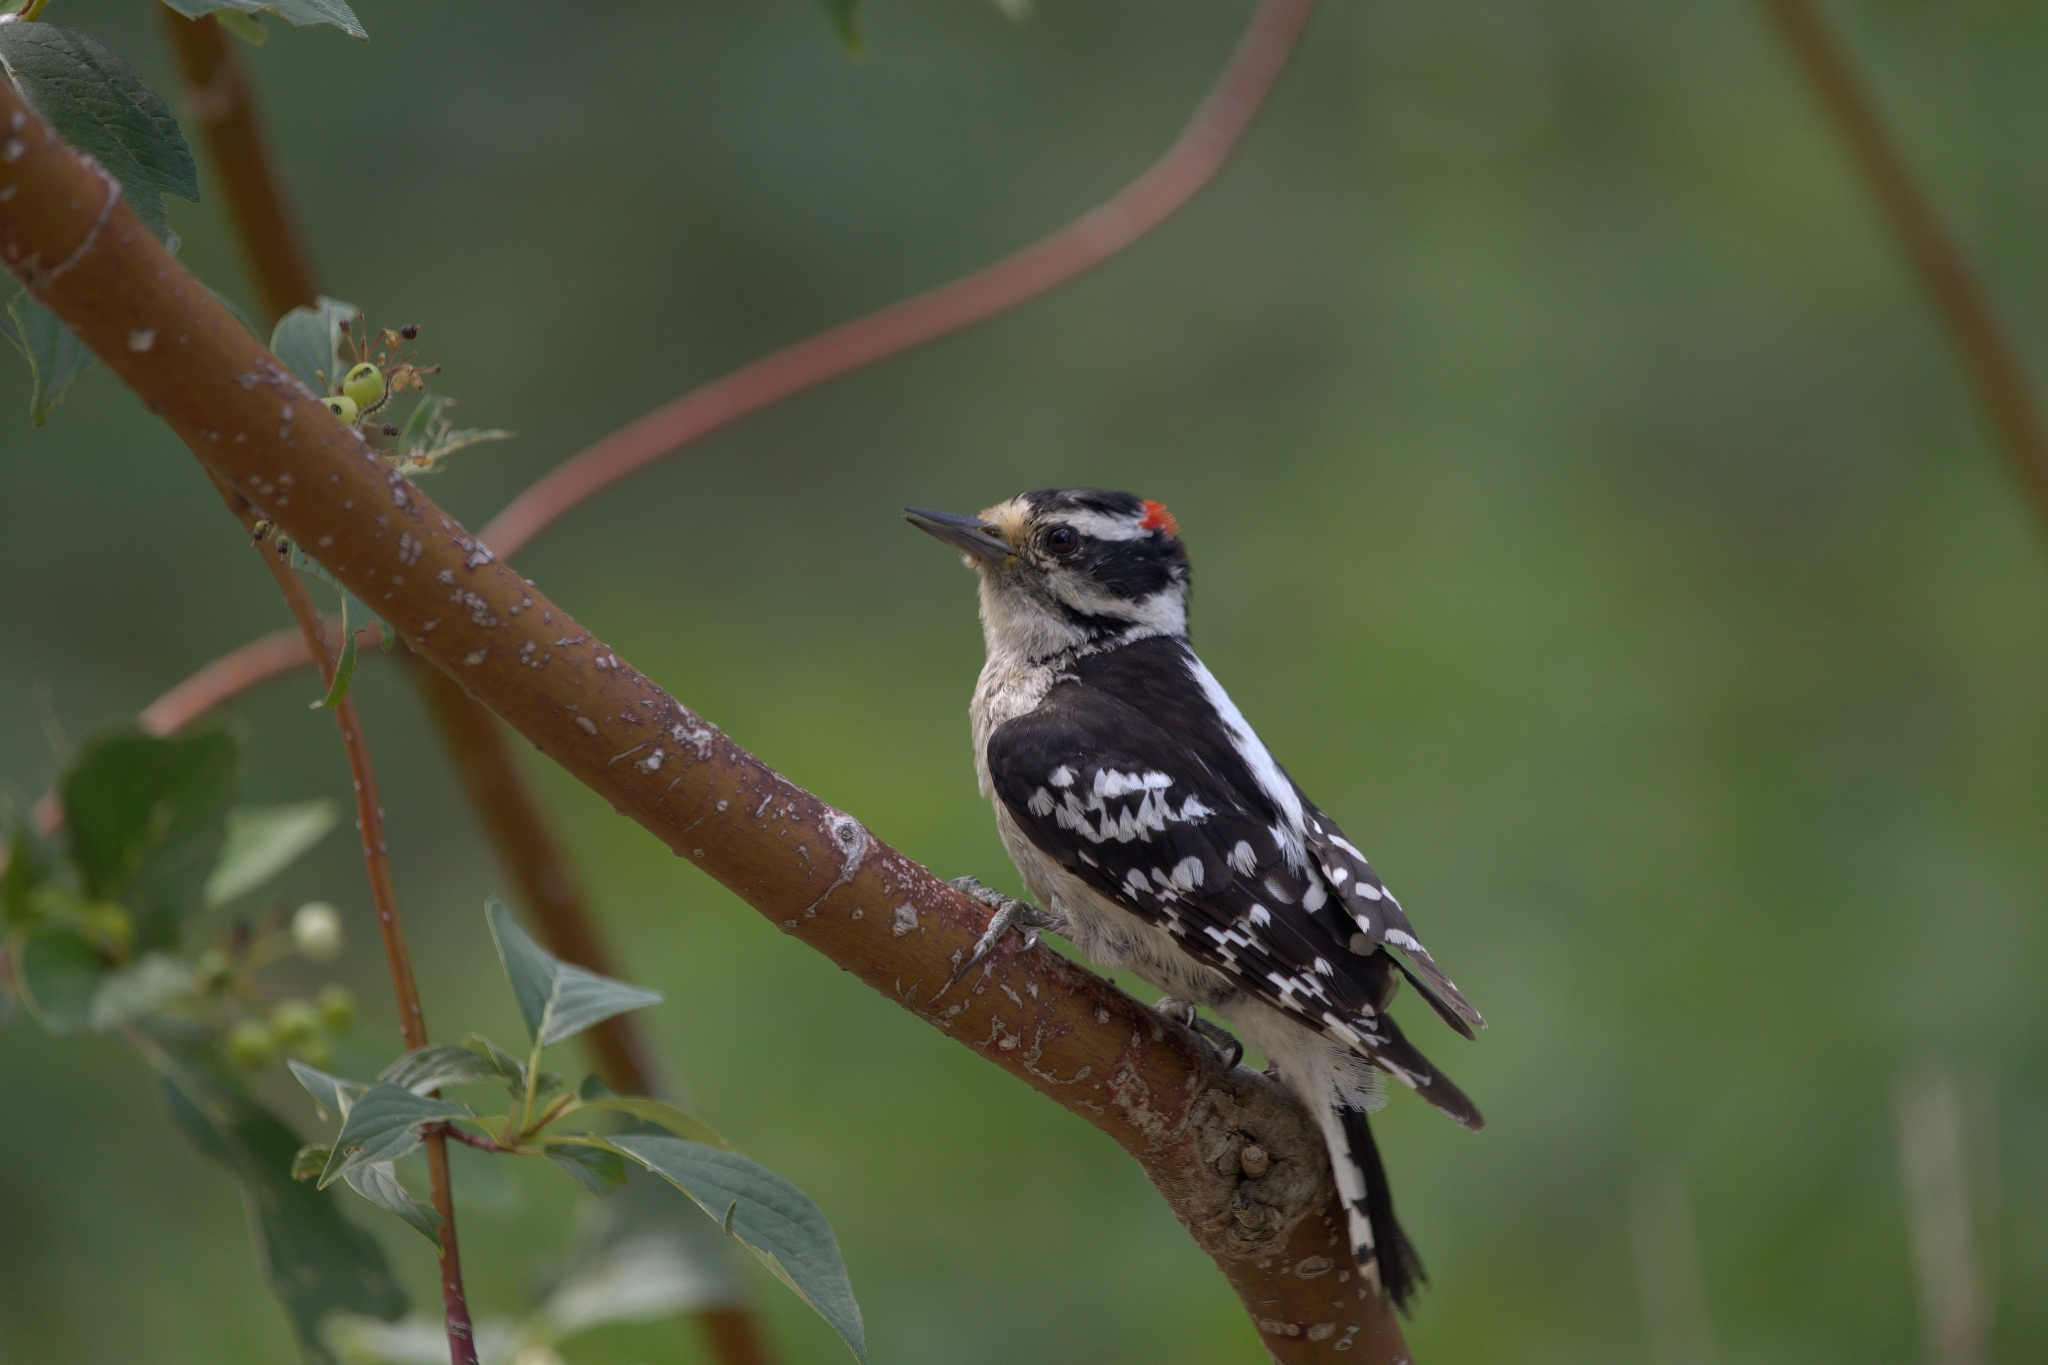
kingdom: Animalia
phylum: Chordata
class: Aves
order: Piciformes
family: Picidae
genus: Dryobates
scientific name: Dryobates pubescens
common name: Downy woodpecker
